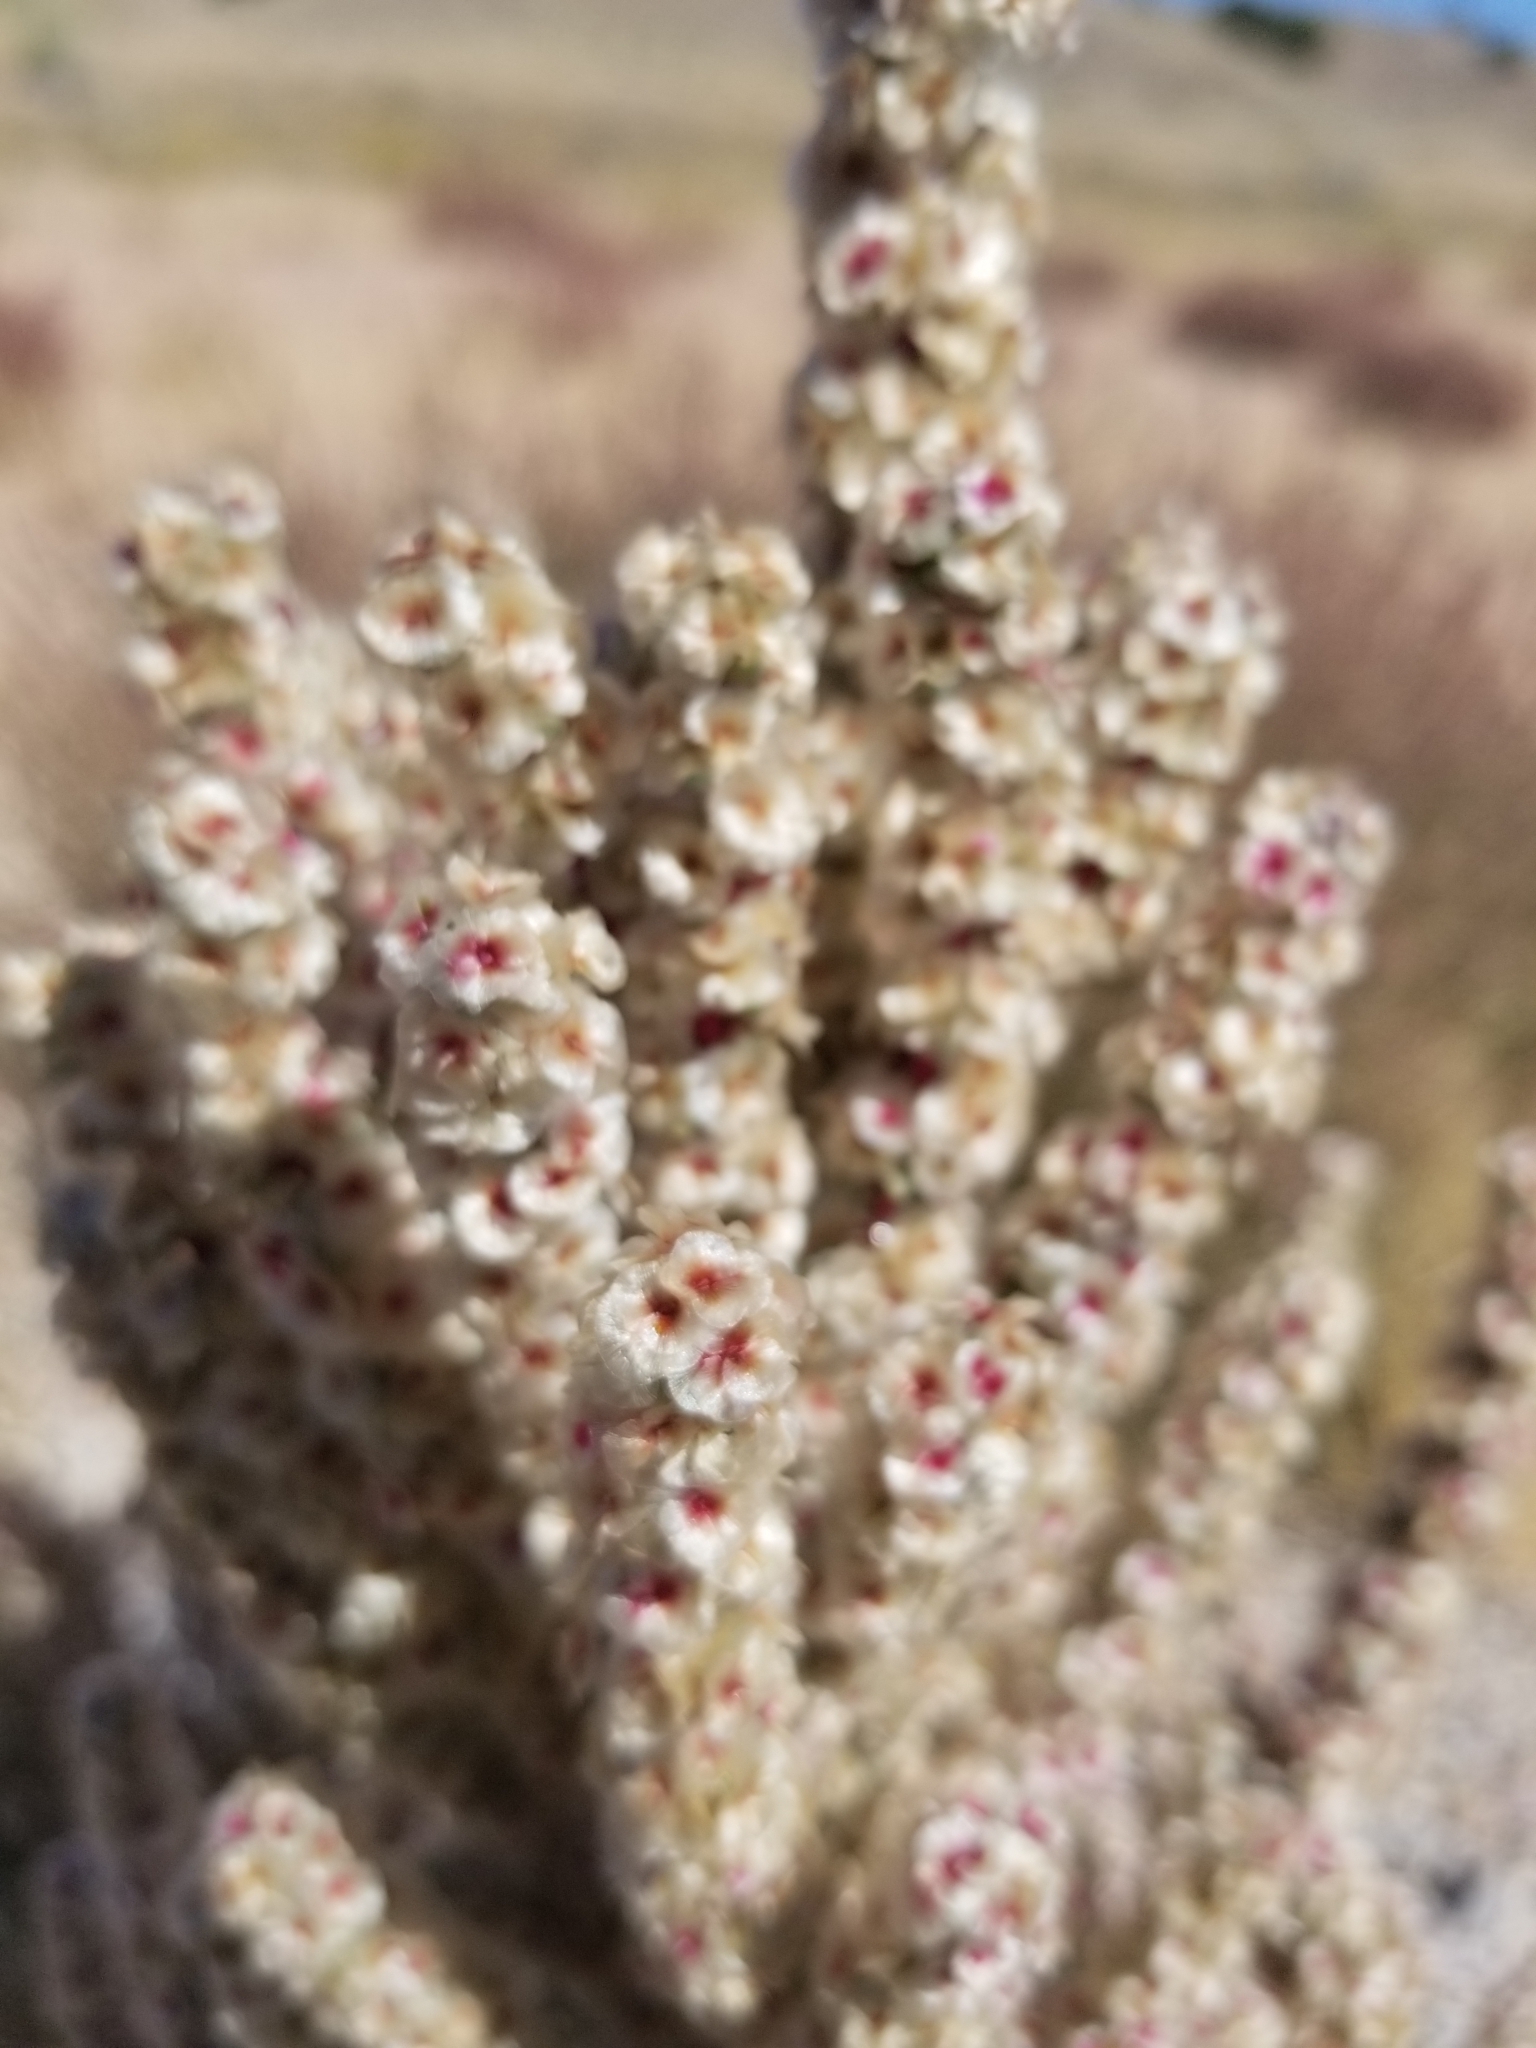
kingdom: Plantae
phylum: Tracheophyta
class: Magnoliopsida
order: Caryophyllales
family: Amaranthaceae
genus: Halogeton
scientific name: Halogeton glomeratus
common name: Saltlover
